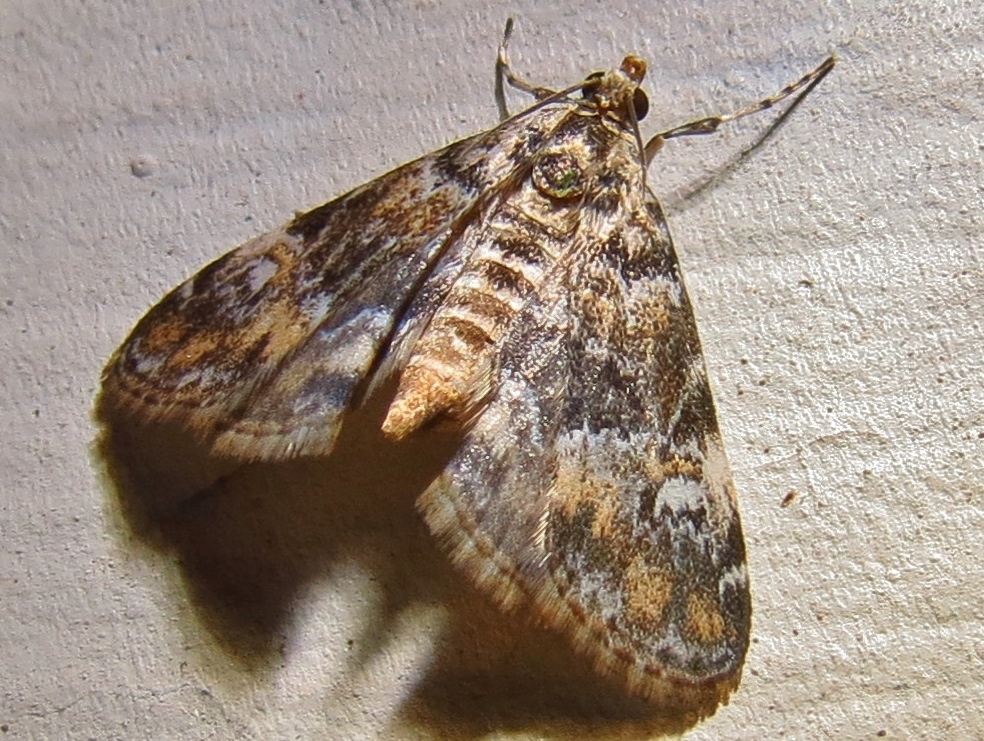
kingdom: Animalia
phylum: Arthropoda
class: Insecta
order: Lepidoptera
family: Crambidae
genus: Elophila
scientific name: Elophila obliteralis
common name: Waterlily leafcutter moth
